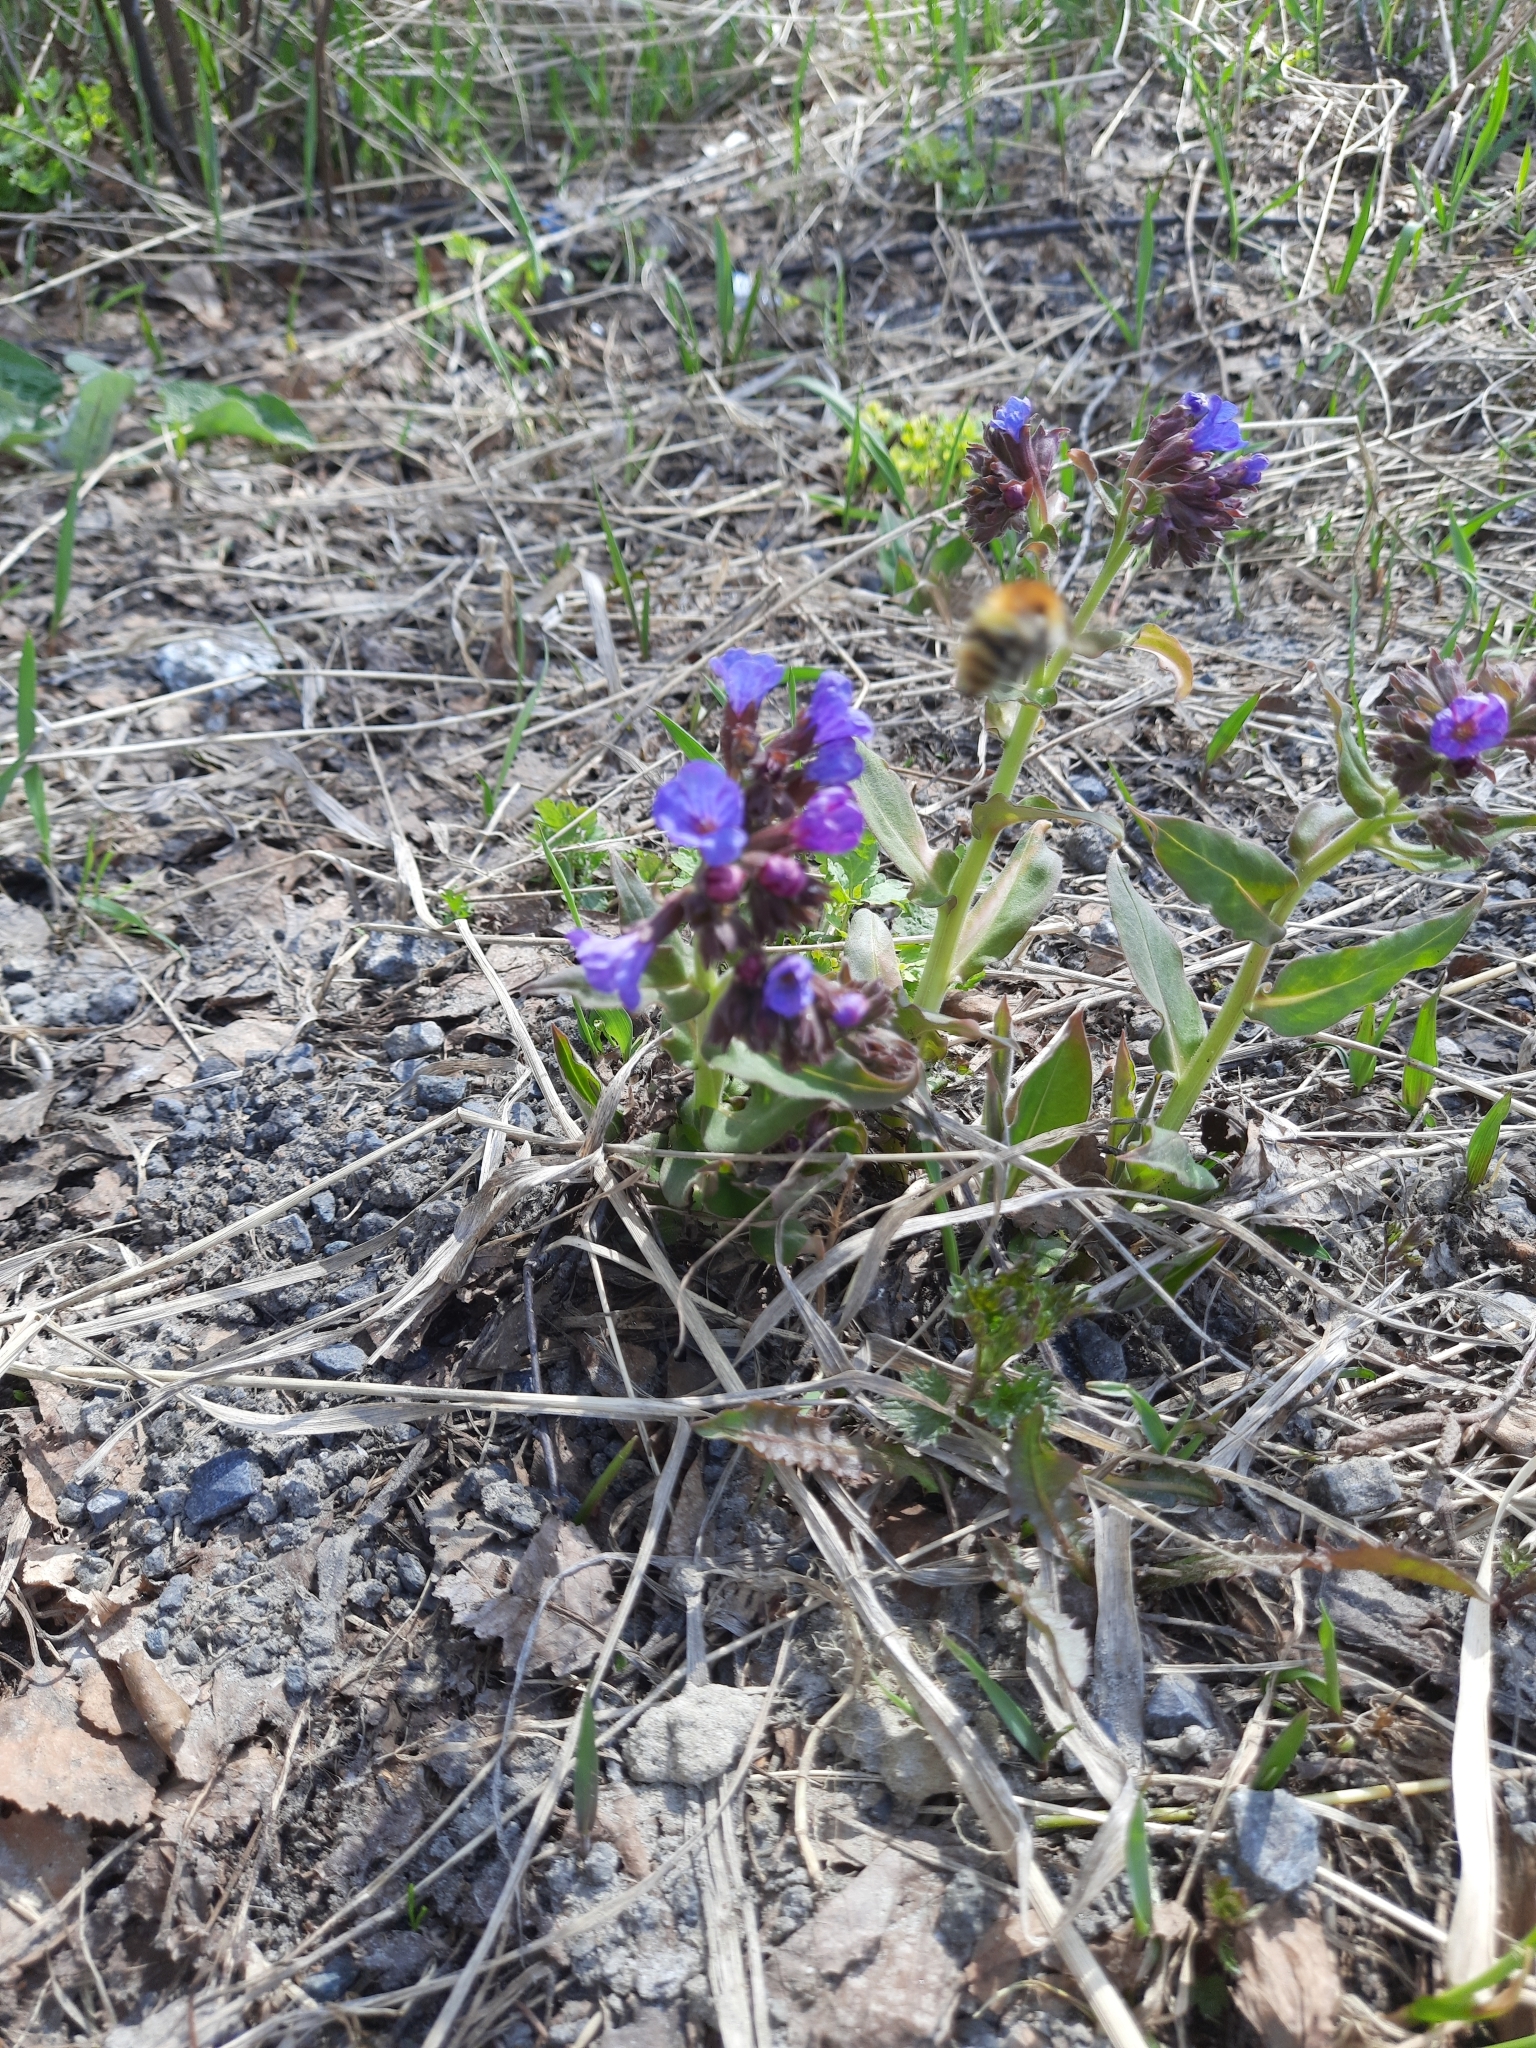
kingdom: Plantae
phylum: Tracheophyta
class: Magnoliopsida
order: Boraginales
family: Boraginaceae
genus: Pulmonaria
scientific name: Pulmonaria mollis
